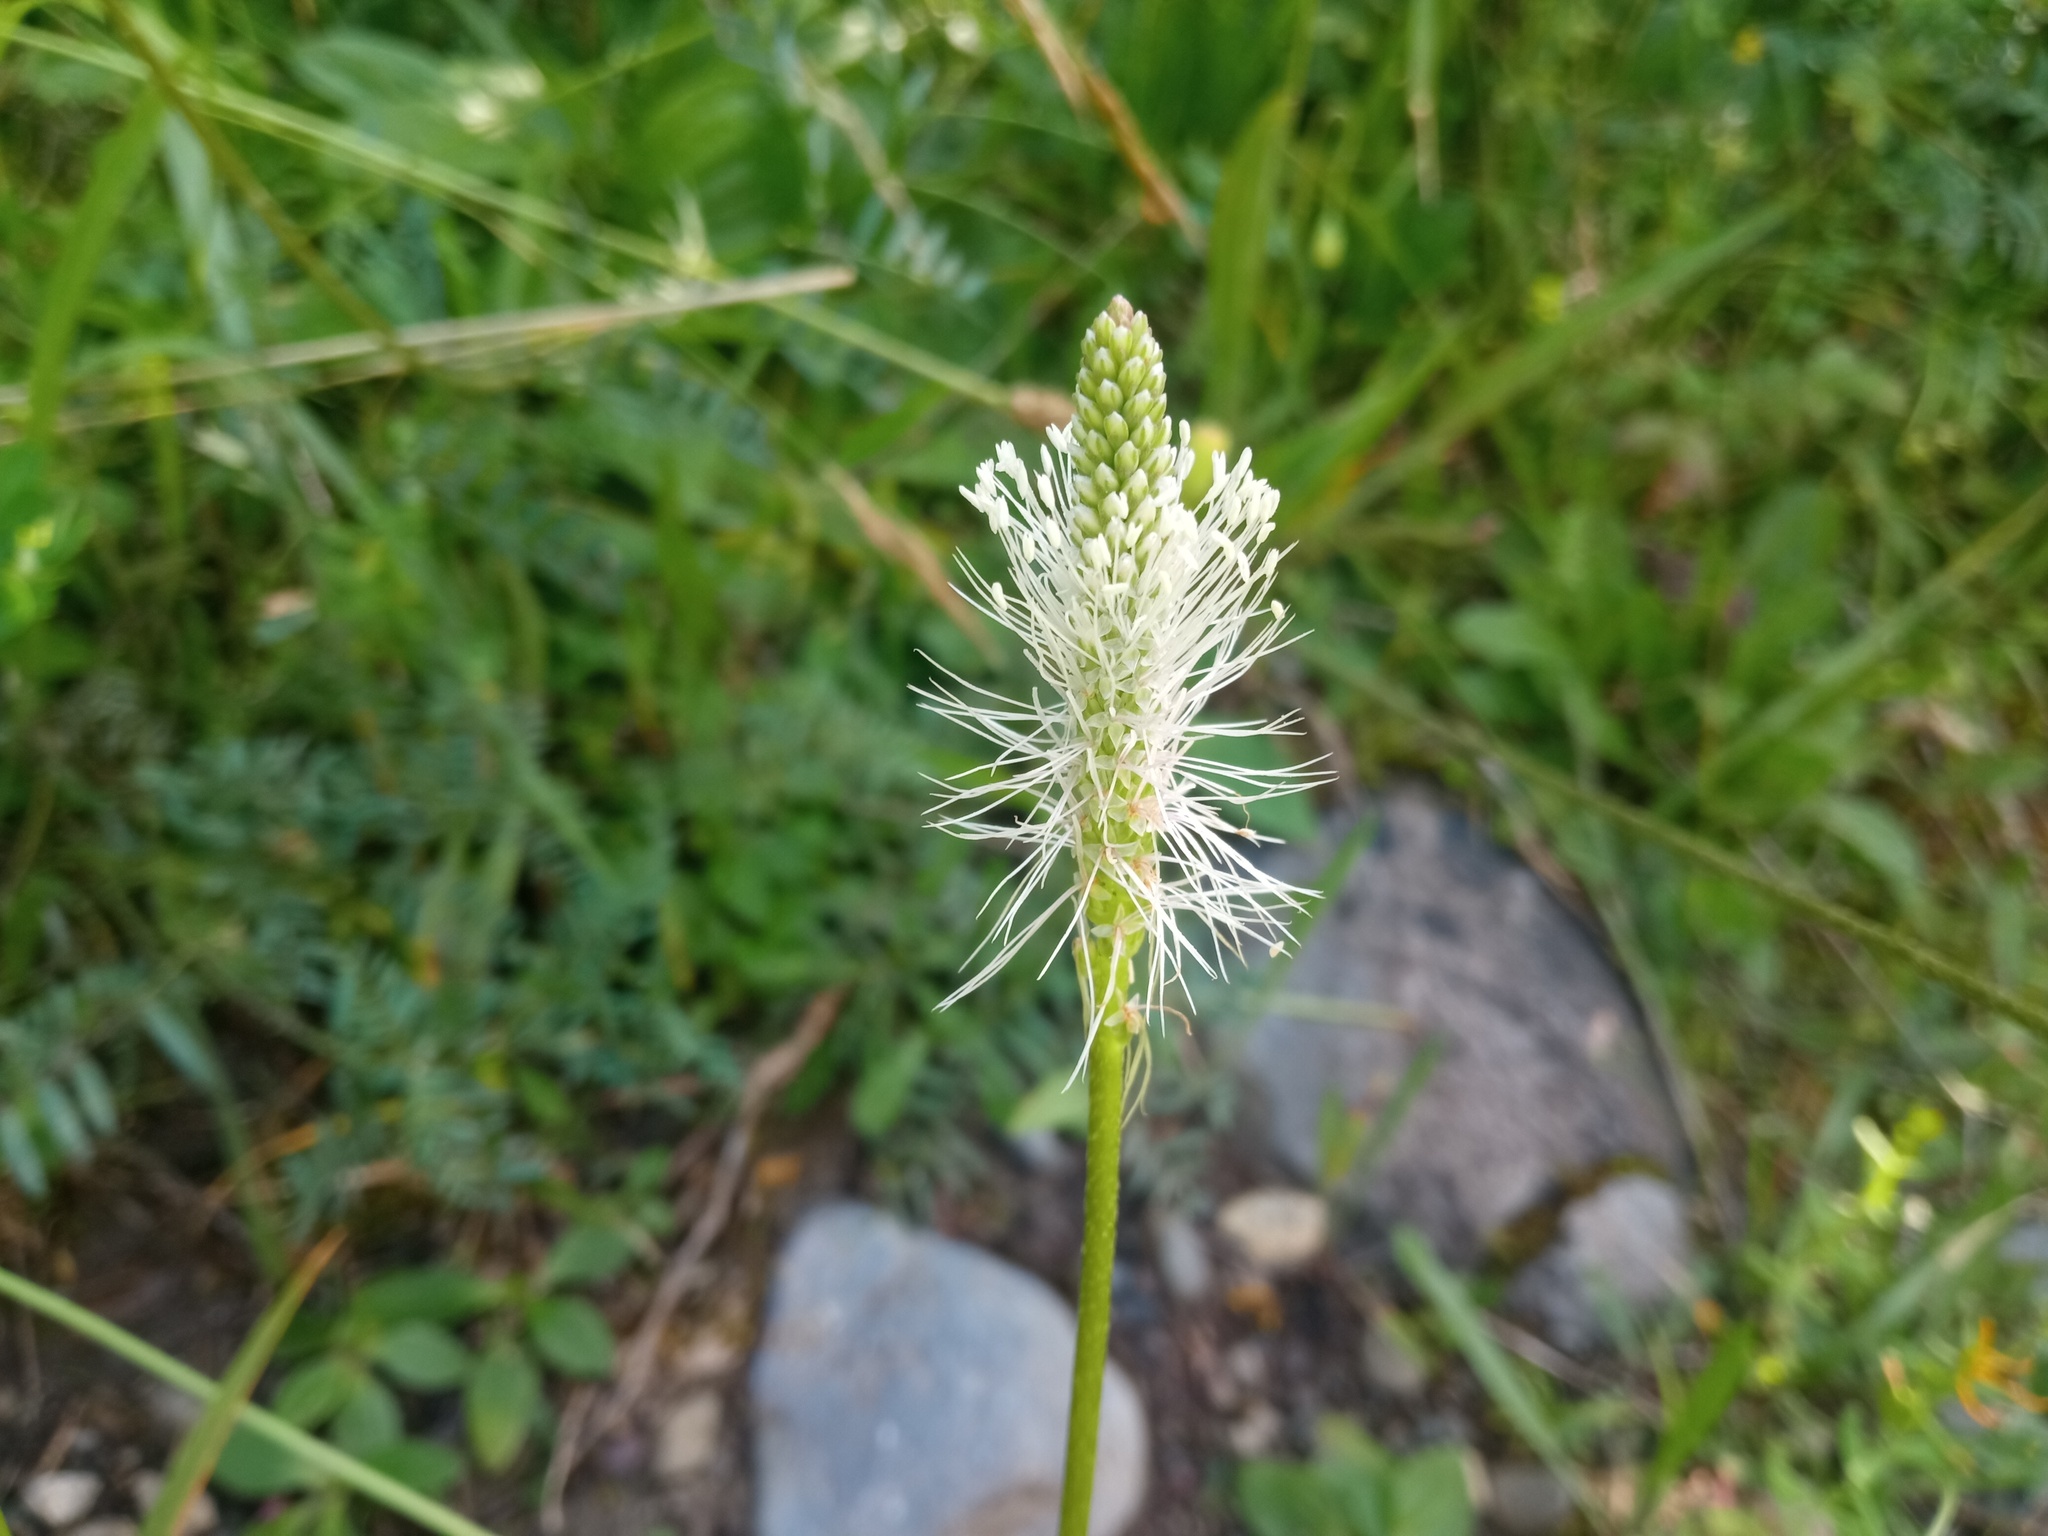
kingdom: Plantae
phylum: Tracheophyta
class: Magnoliopsida
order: Lamiales
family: Plantaginaceae
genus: Plantago
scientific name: Plantago media
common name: Hoary plantain
